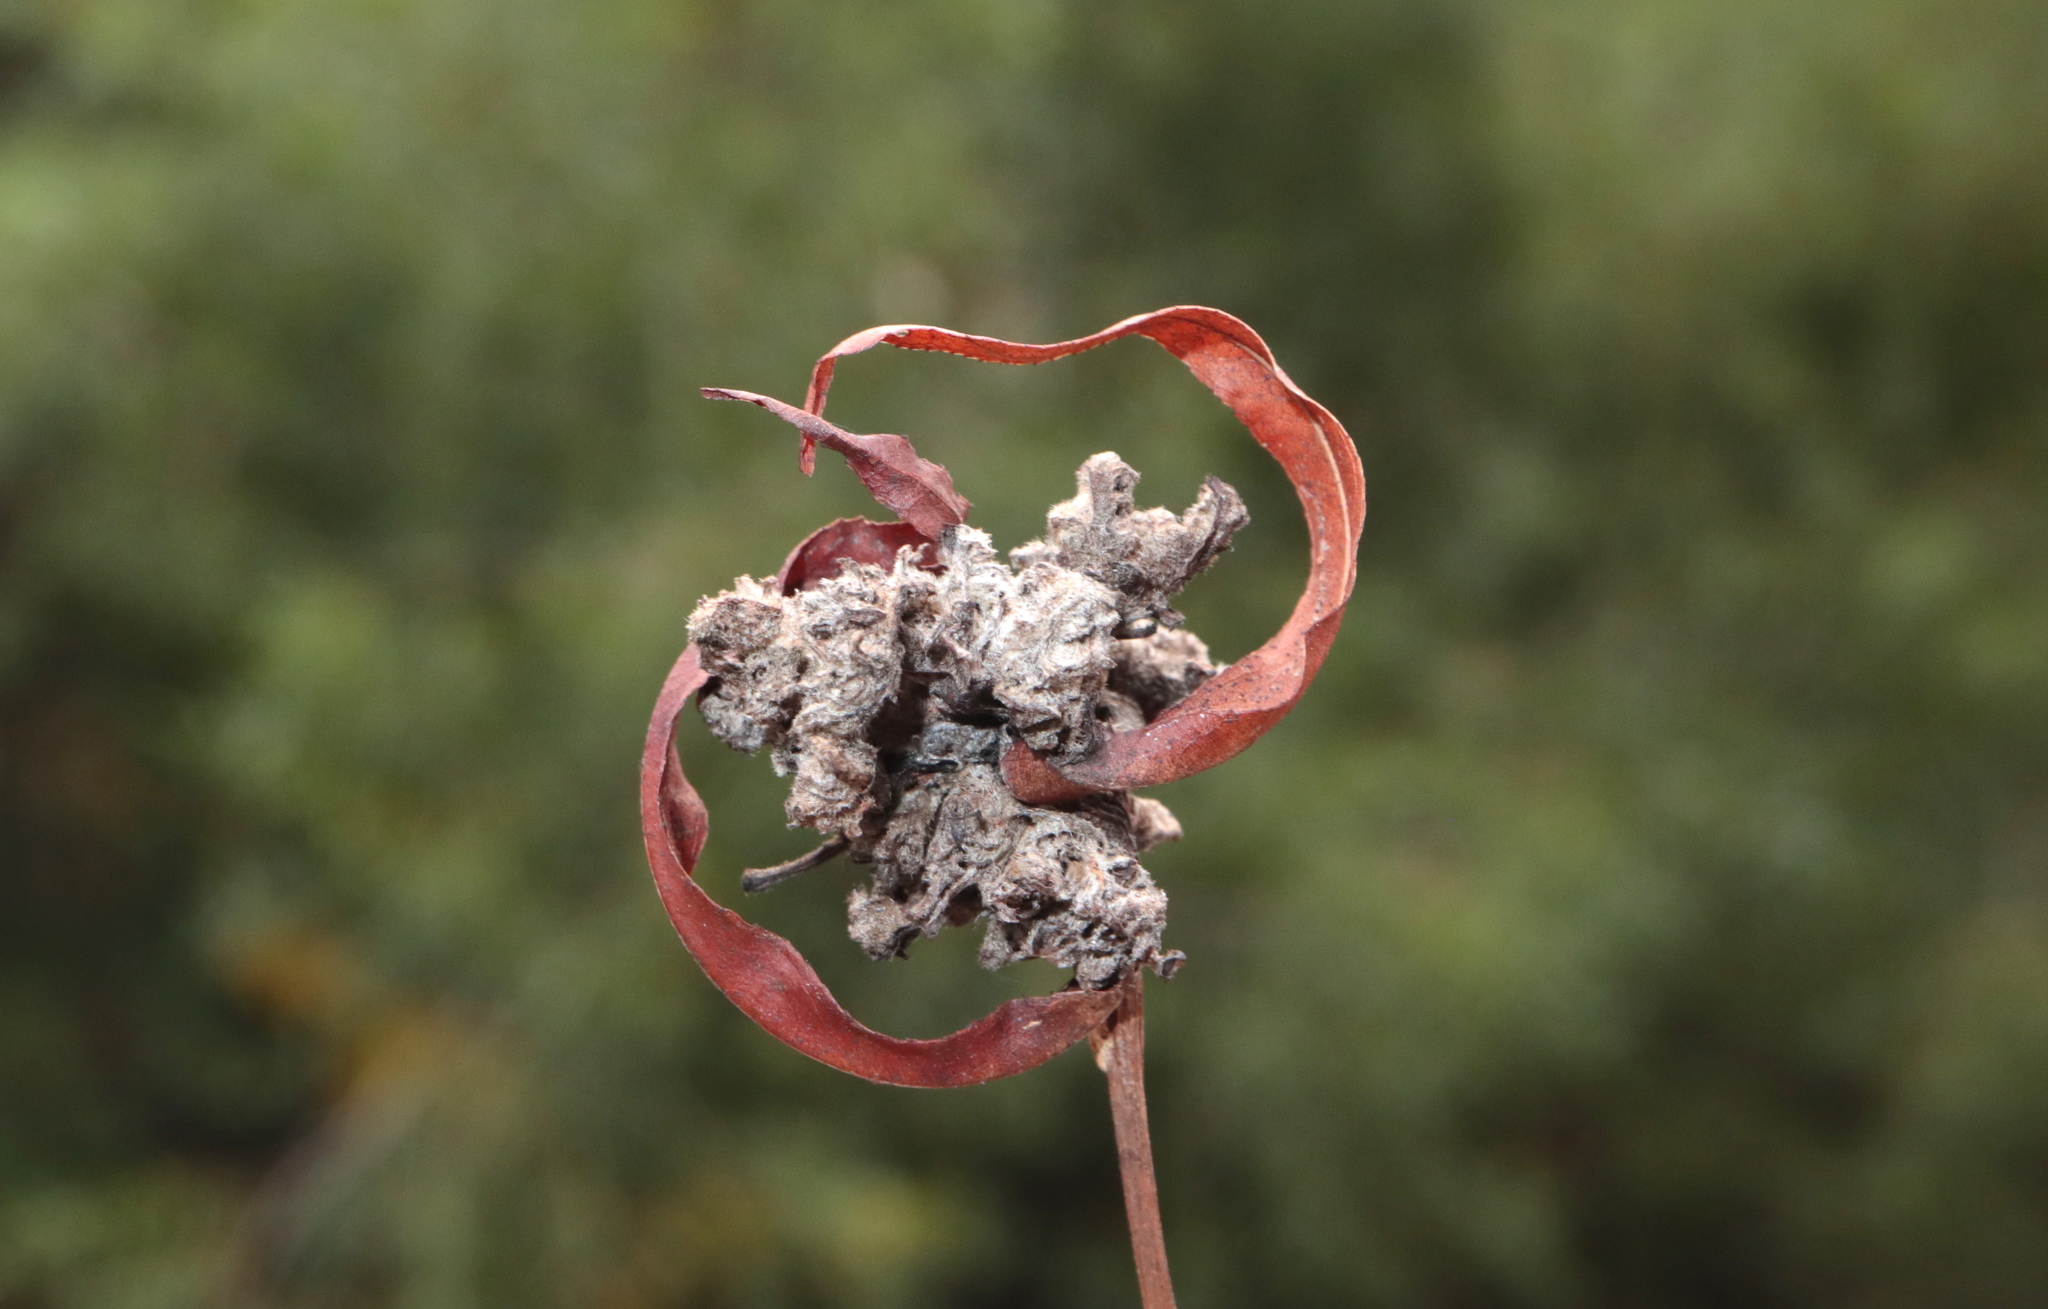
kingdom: Animalia
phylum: Arthropoda
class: Arachnida
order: Trombidiformes
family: Eriophyidae
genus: Aculops
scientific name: Aculops
